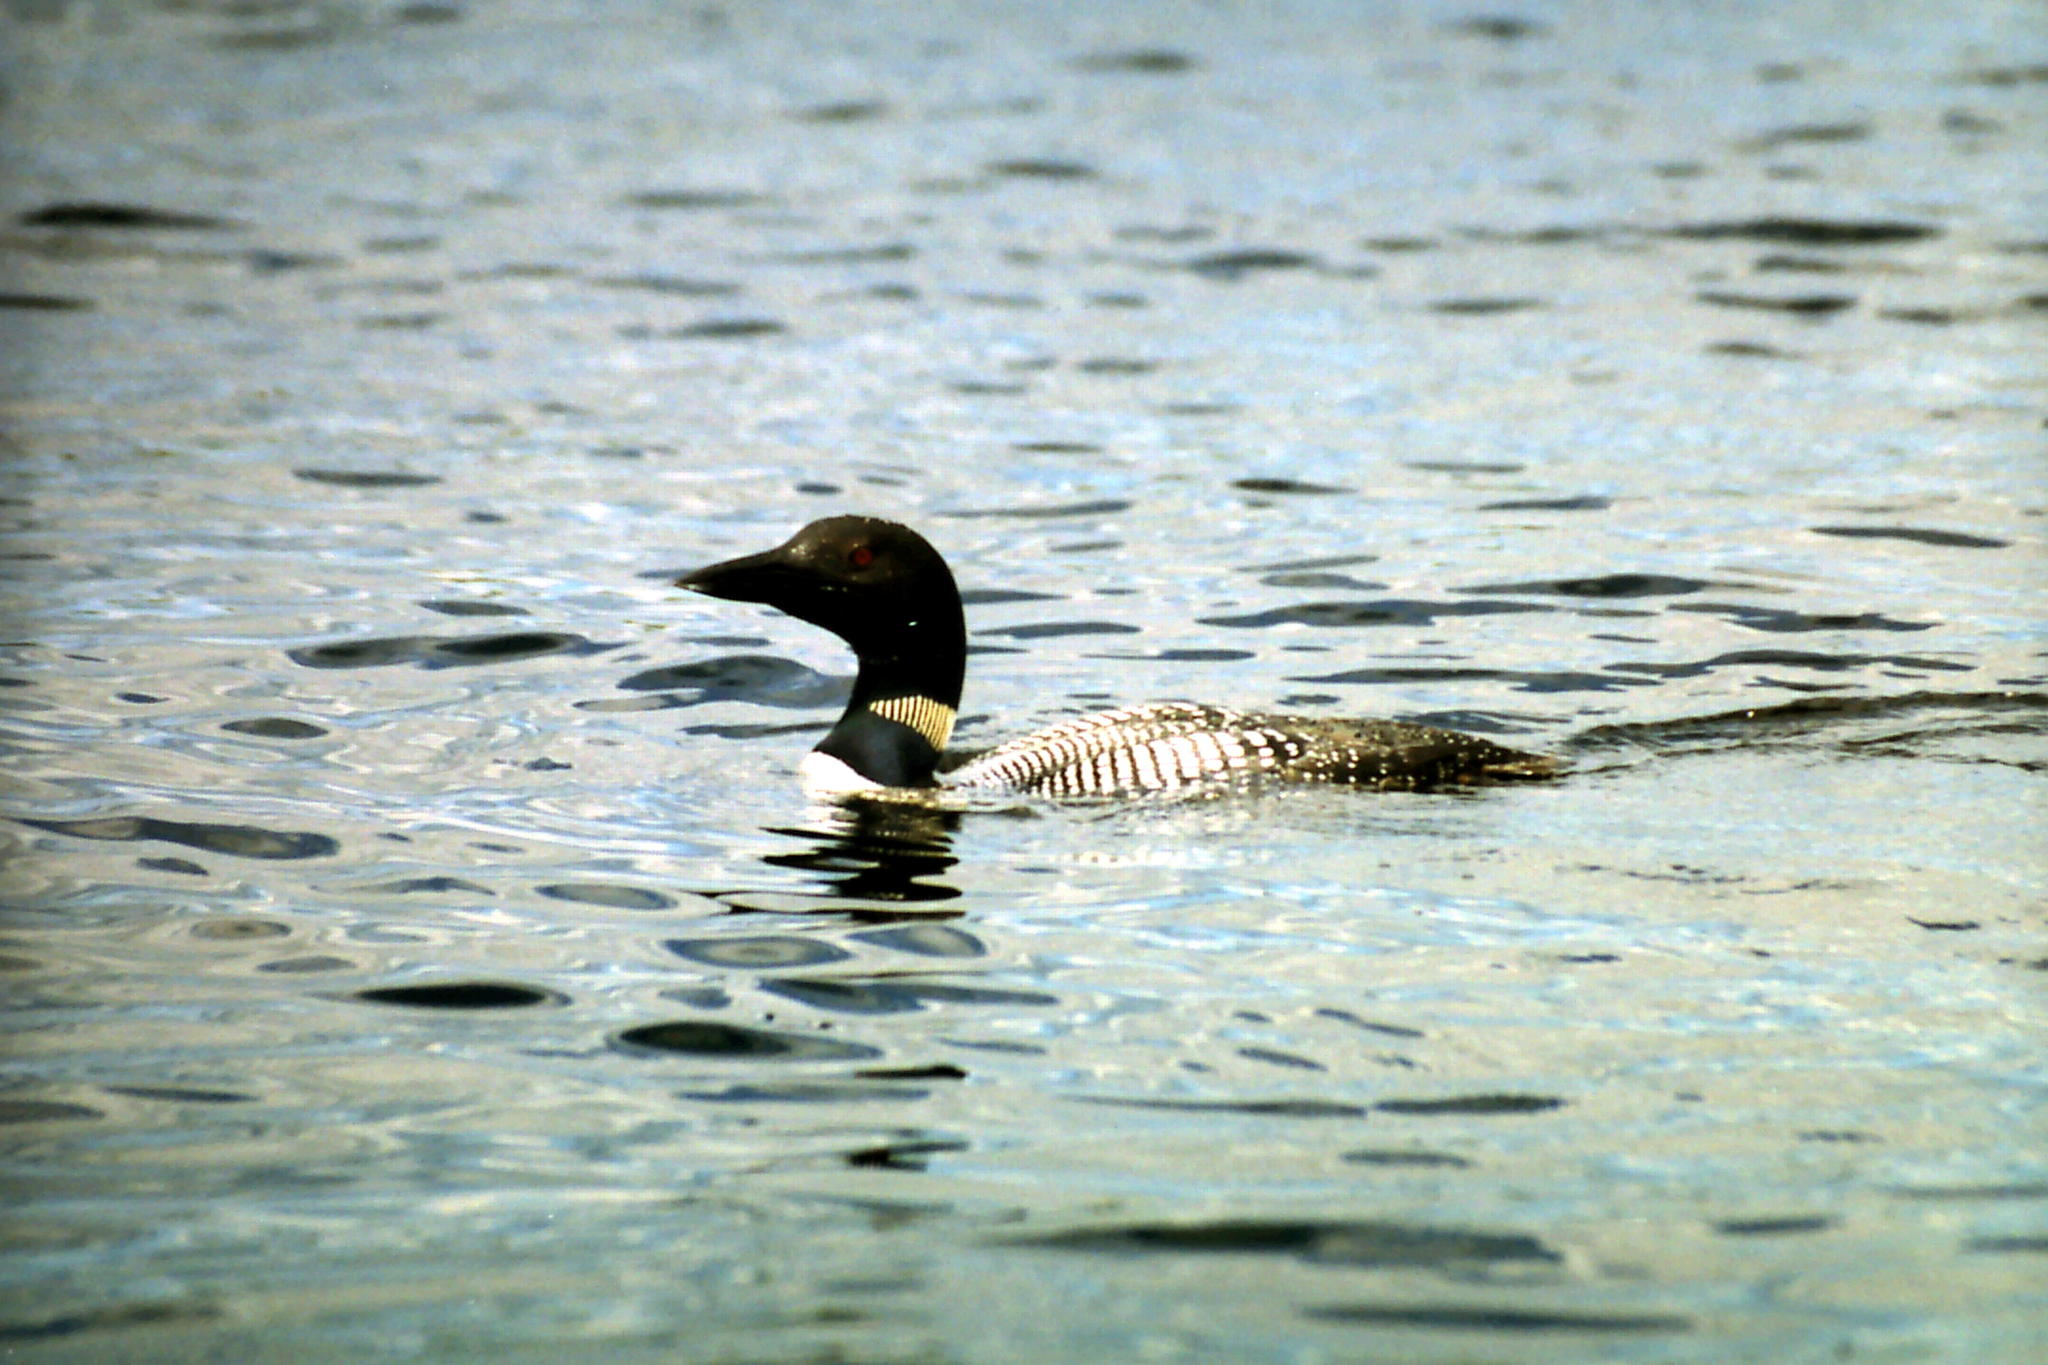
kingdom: Animalia
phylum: Chordata
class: Aves
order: Gaviiformes
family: Gaviidae
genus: Gavia
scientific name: Gavia immer
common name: Common loon
